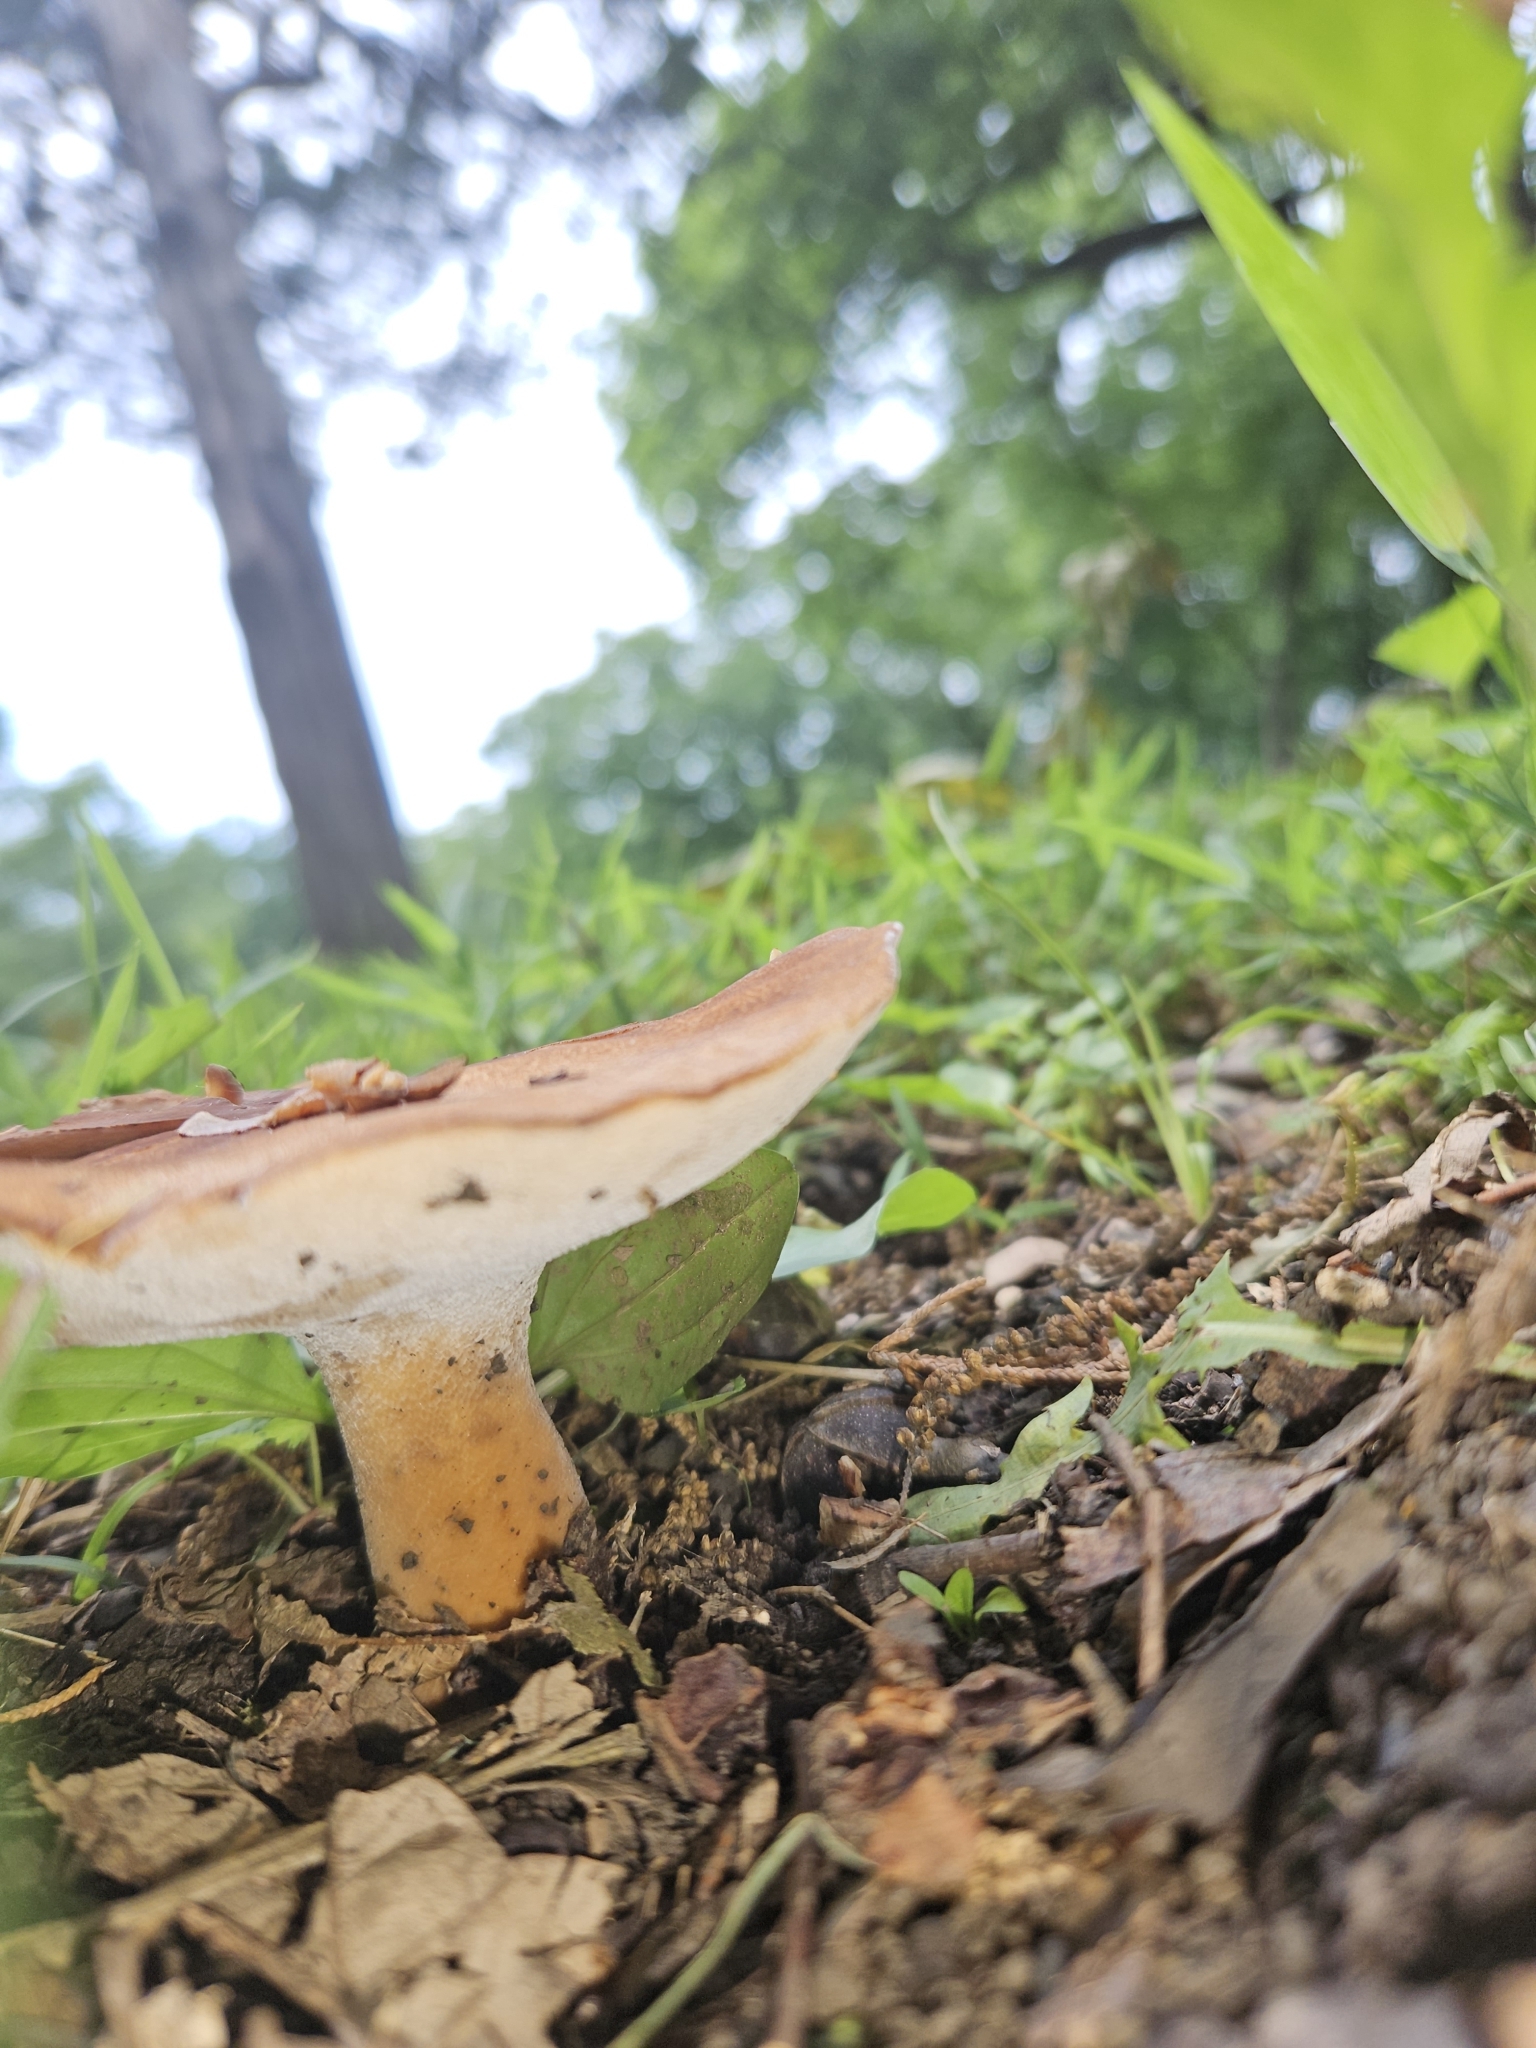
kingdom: Fungi
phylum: Basidiomycota
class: Agaricomycetes
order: Polyporales
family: Polyporaceae
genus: Polyporus
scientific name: Polyporus radicatus
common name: Rooting polypore
